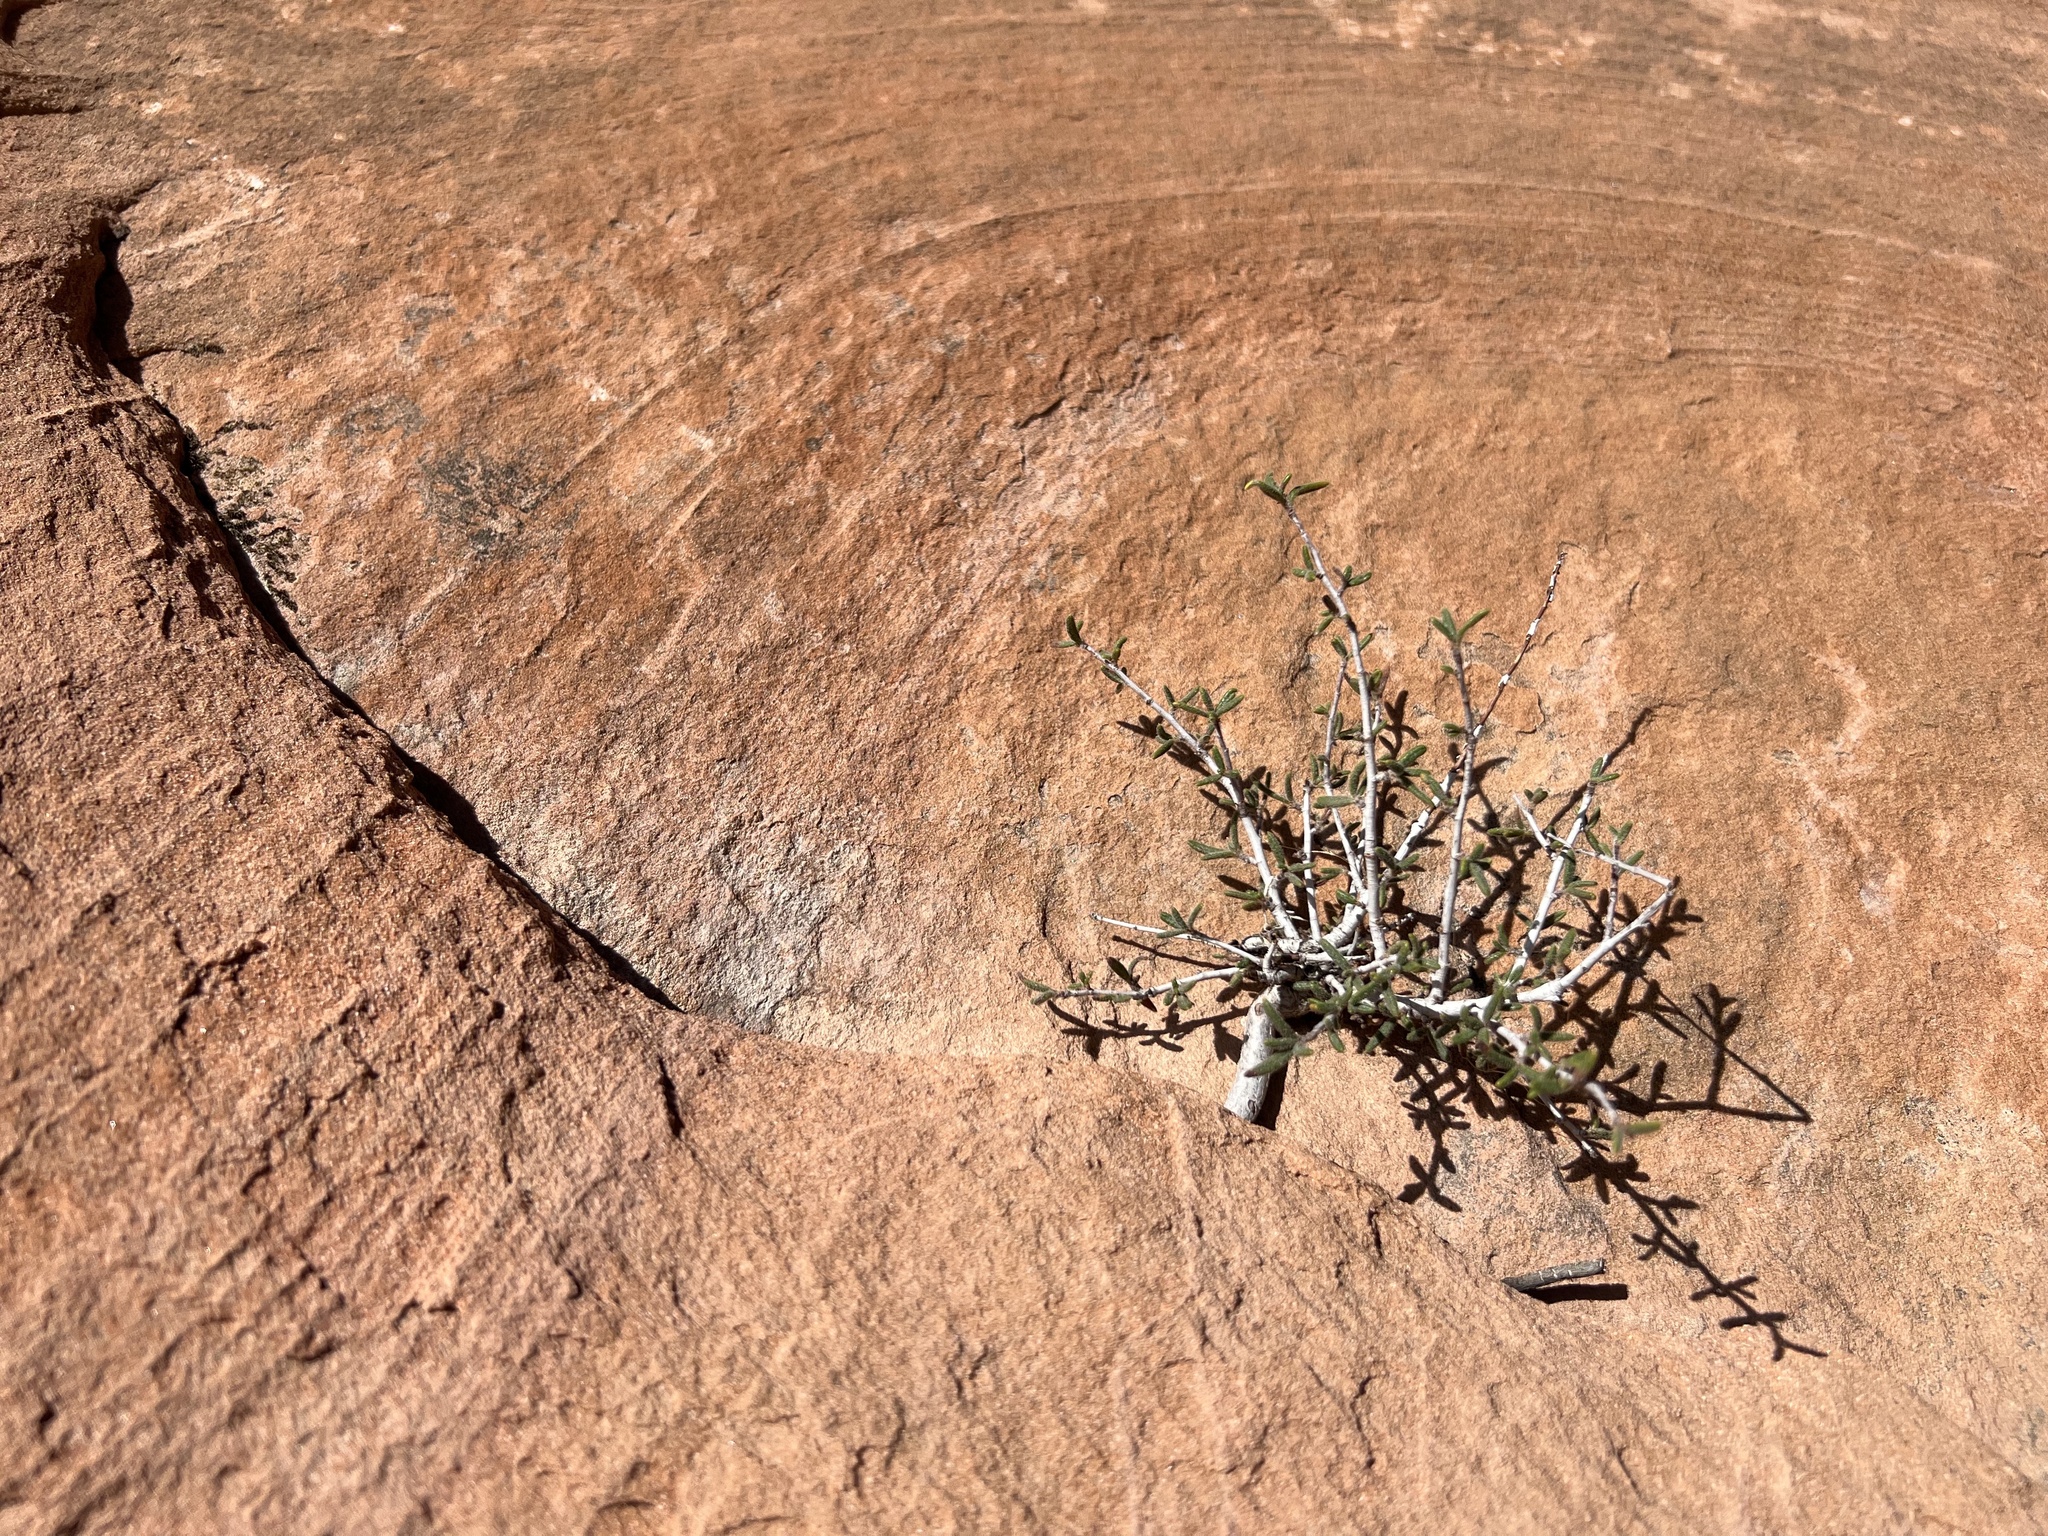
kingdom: Plantae
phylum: Tracheophyta
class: Magnoliopsida
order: Rosales
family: Rosaceae
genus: Cercocarpus
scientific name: Cercocarpus intricatus
